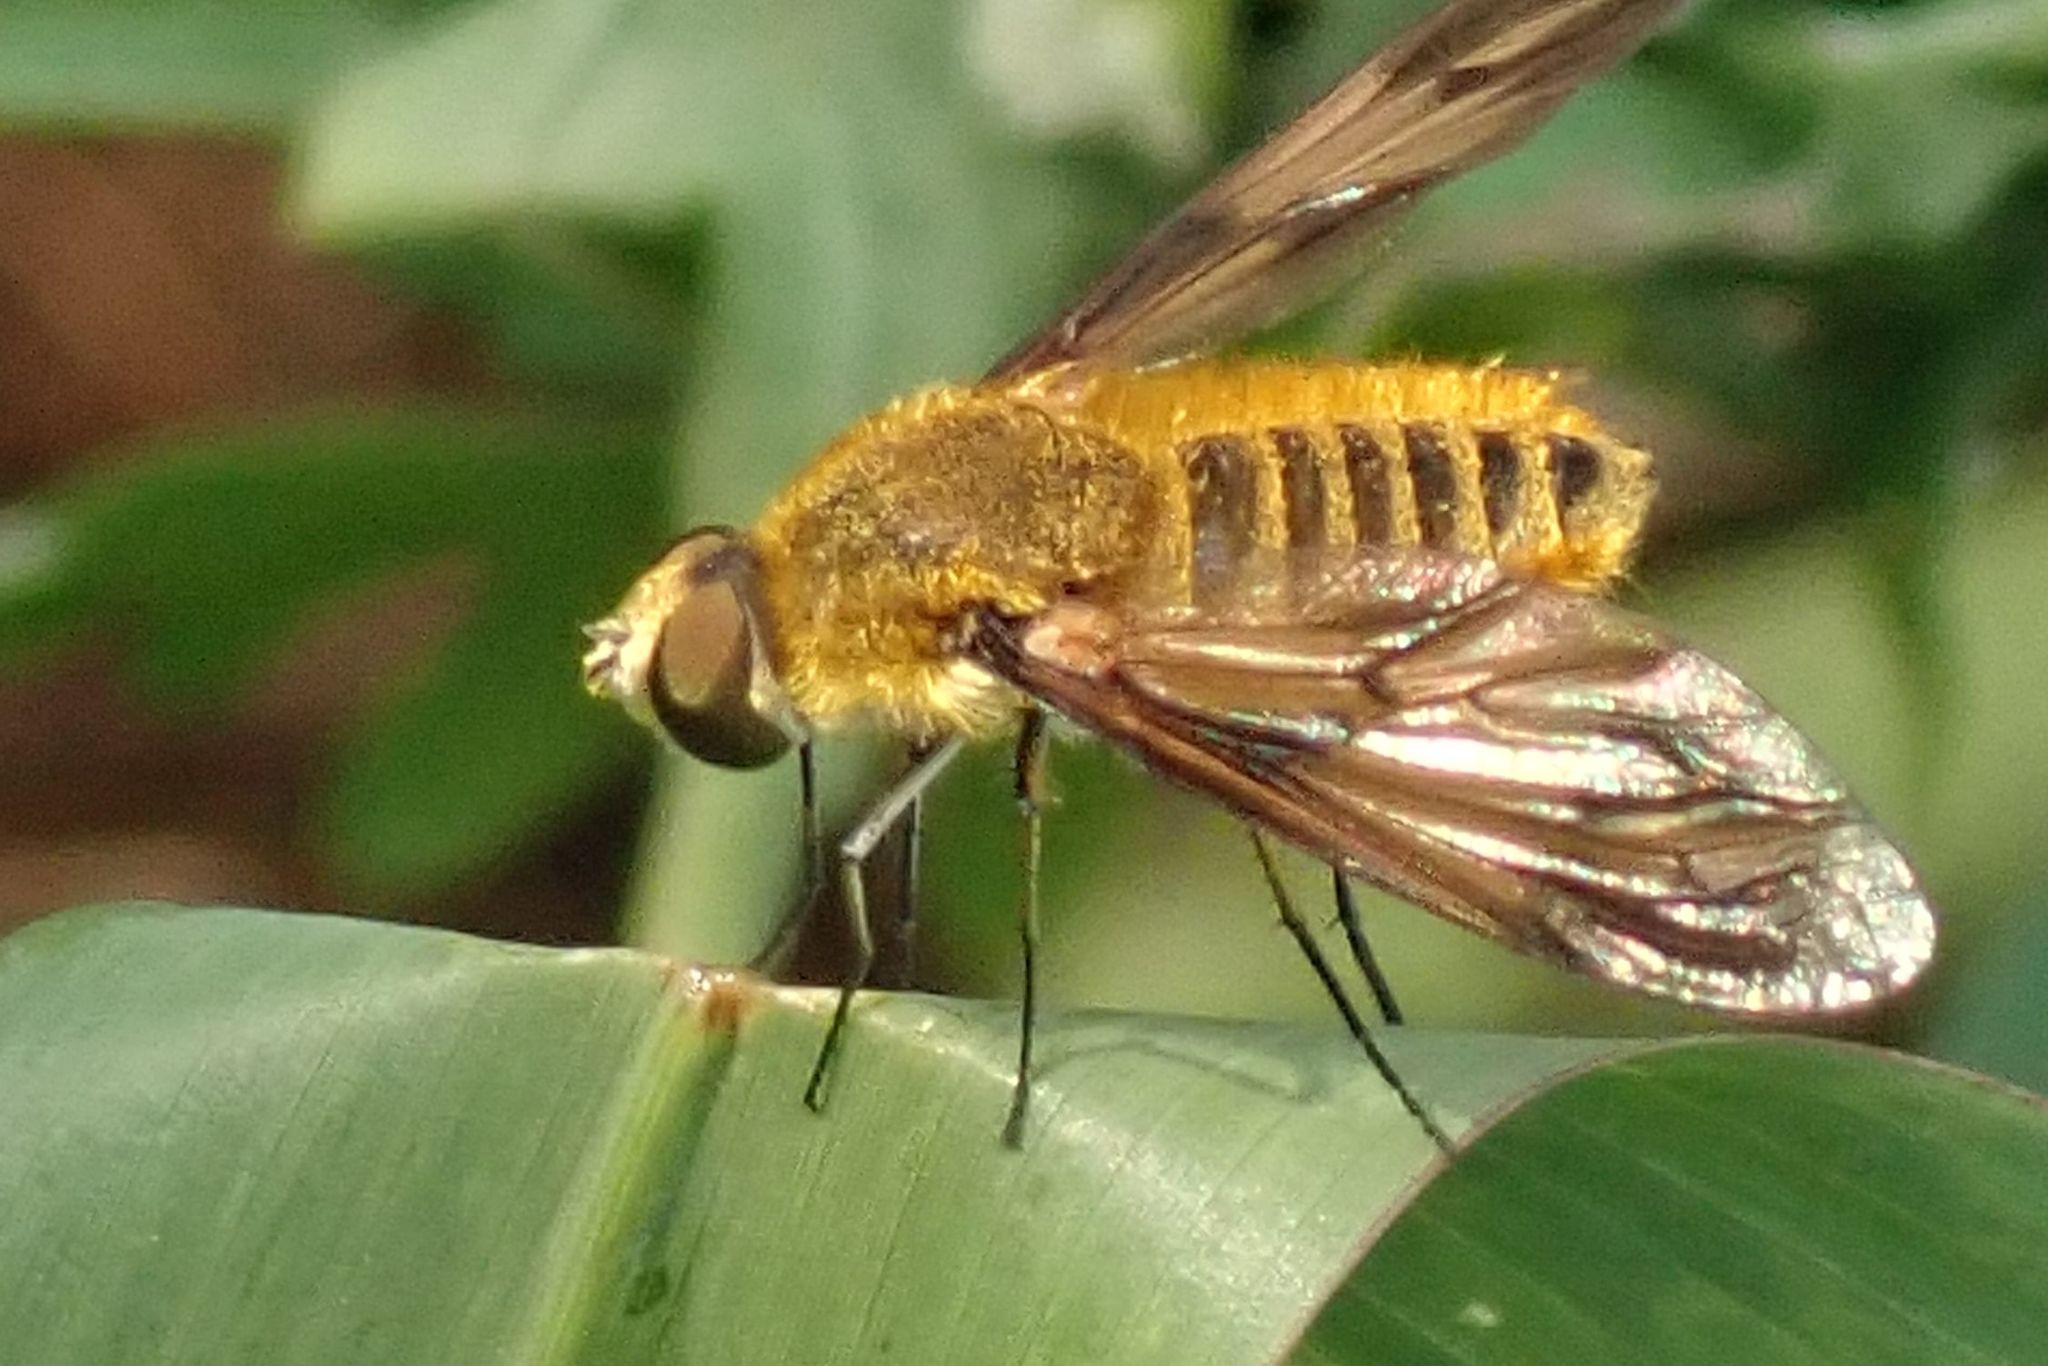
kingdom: Animalia
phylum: Arthropoda
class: Insecta
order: Diptera
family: Bombyliidae
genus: Notolomatia
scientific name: Notolomatia pictipennis
